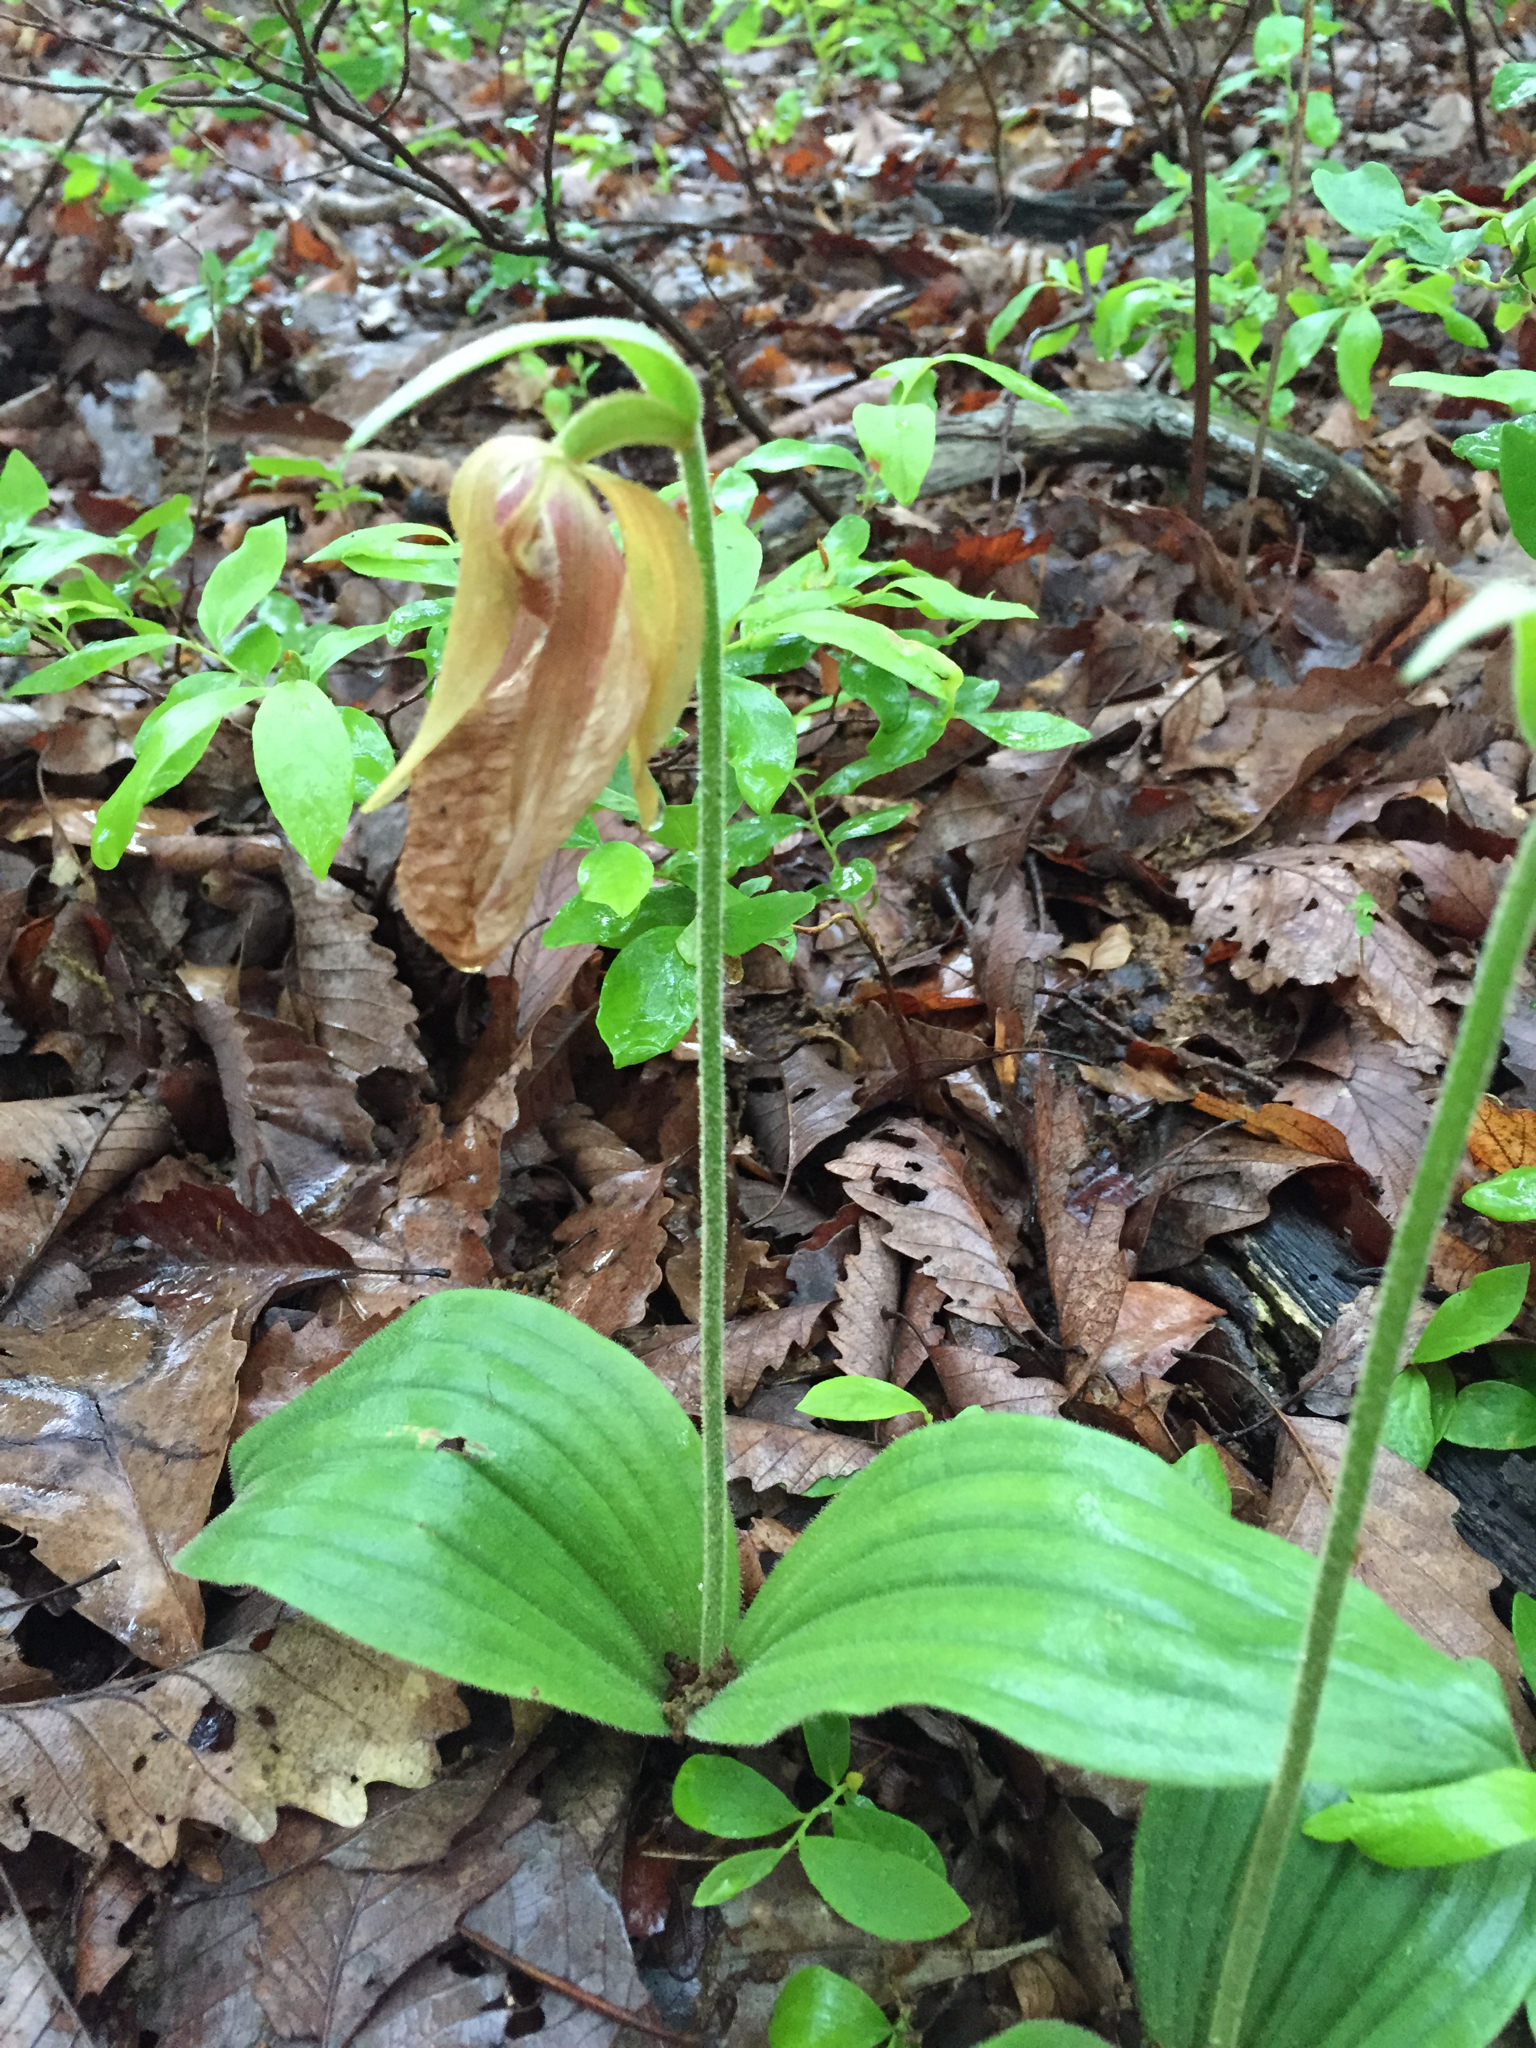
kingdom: Plantae
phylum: Tracheophyta
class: Liliopsida
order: Asparagales
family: Orchidaceae
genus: Cypripedium
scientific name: Cypripedium acaule
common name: Pink lady's-slipper
